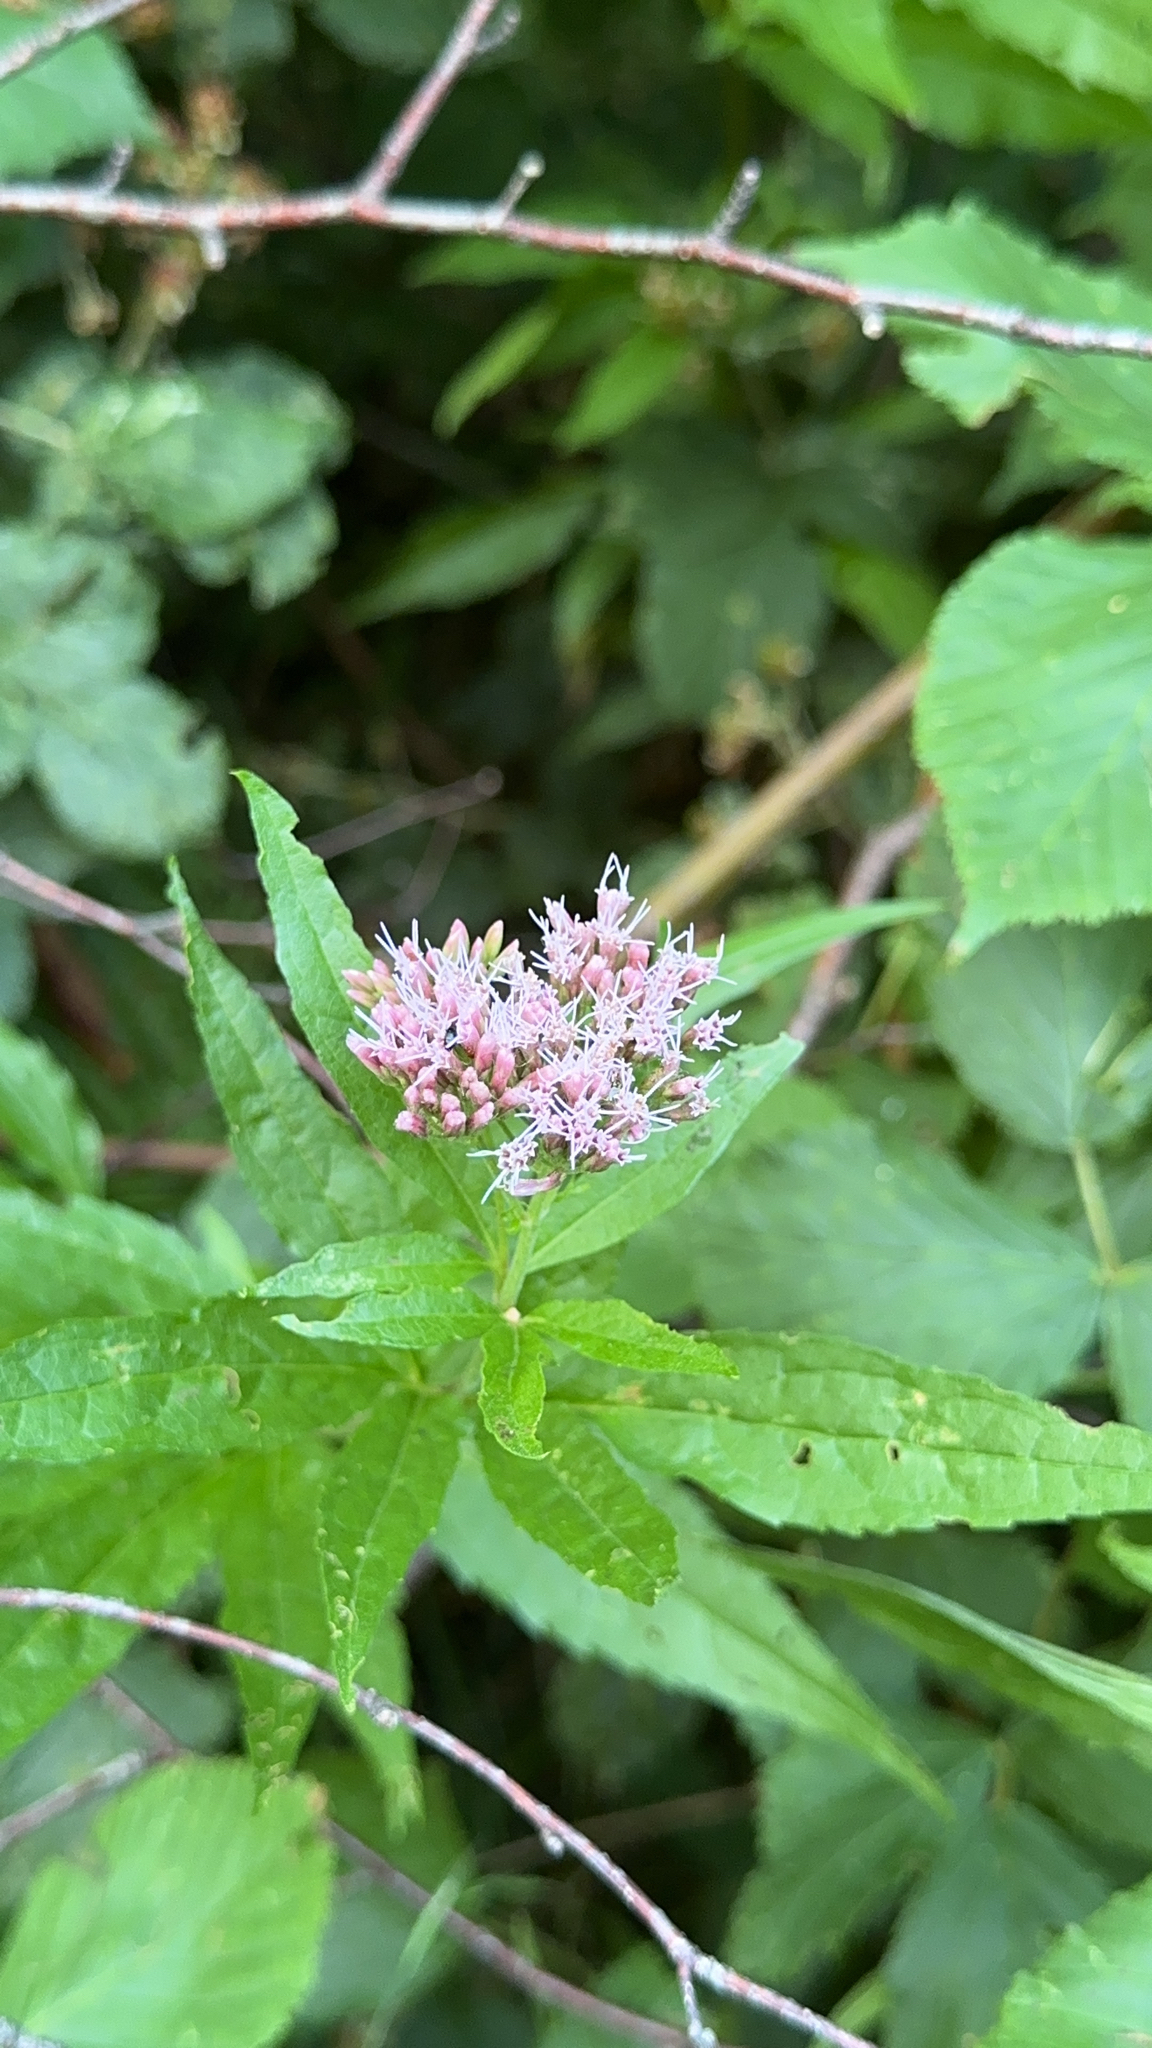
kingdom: Plantae
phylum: Tracheophyta
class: Magnoliopsida
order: Asterales
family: Asteraceae
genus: Eupatorium
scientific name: Eupatorium cannabinum
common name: Hemp-agrimony
